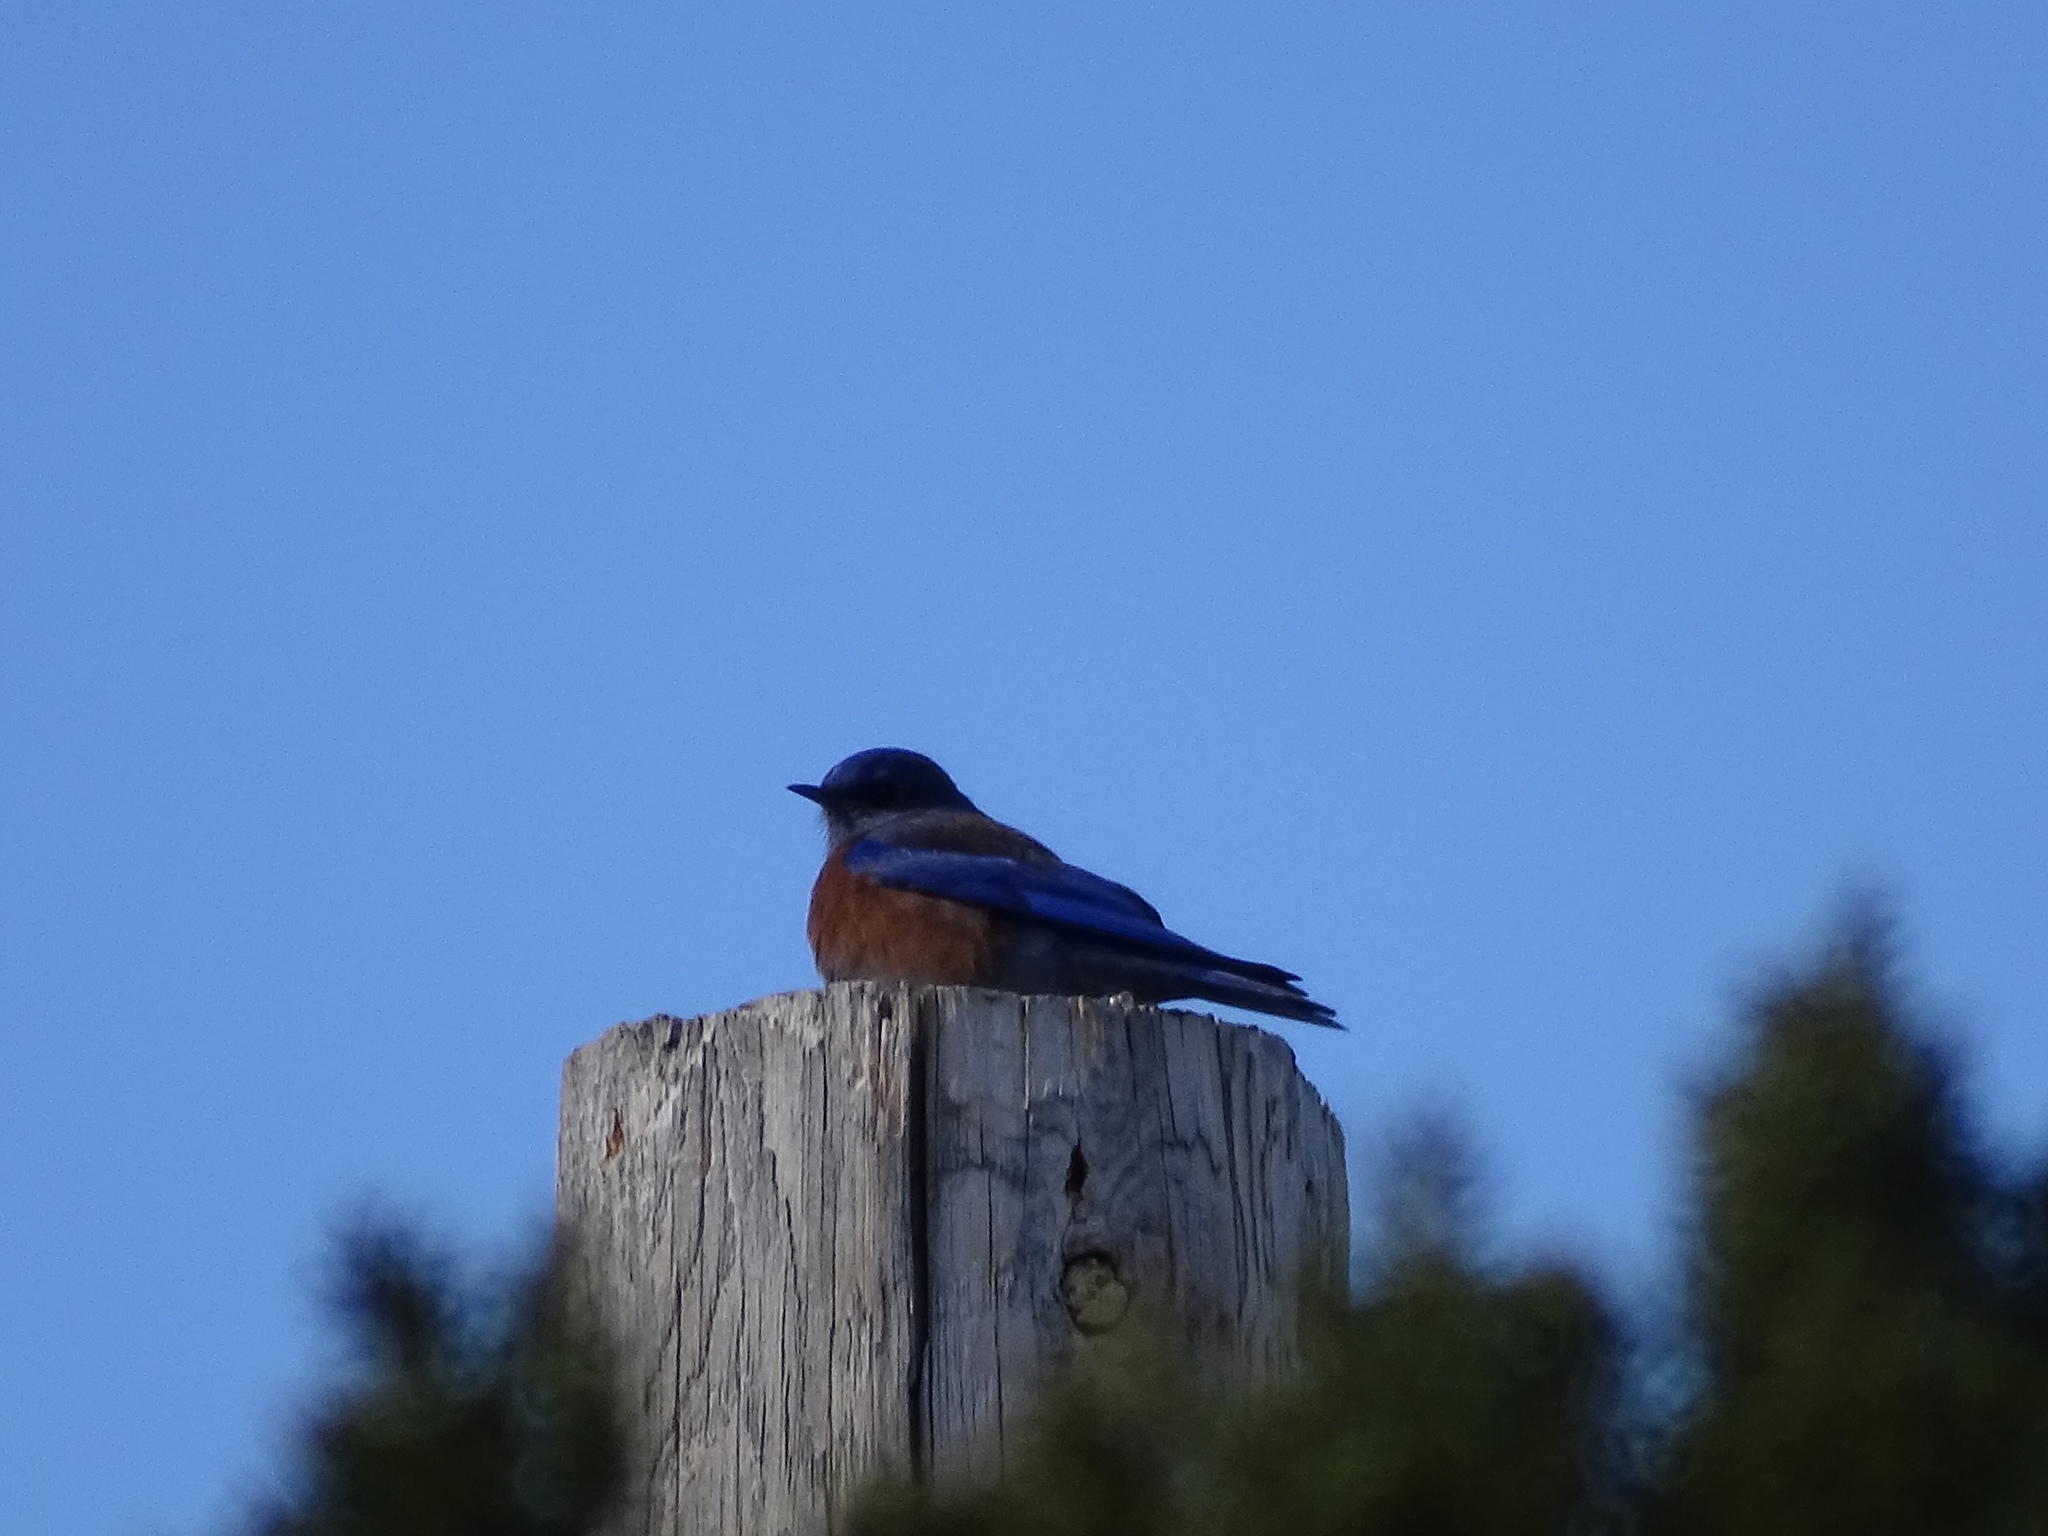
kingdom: Animalia
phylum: Chordata
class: Aves
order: Passeriformes
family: Turdidae
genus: Sialia
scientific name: Sialia mexicana
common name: Western bluebird
